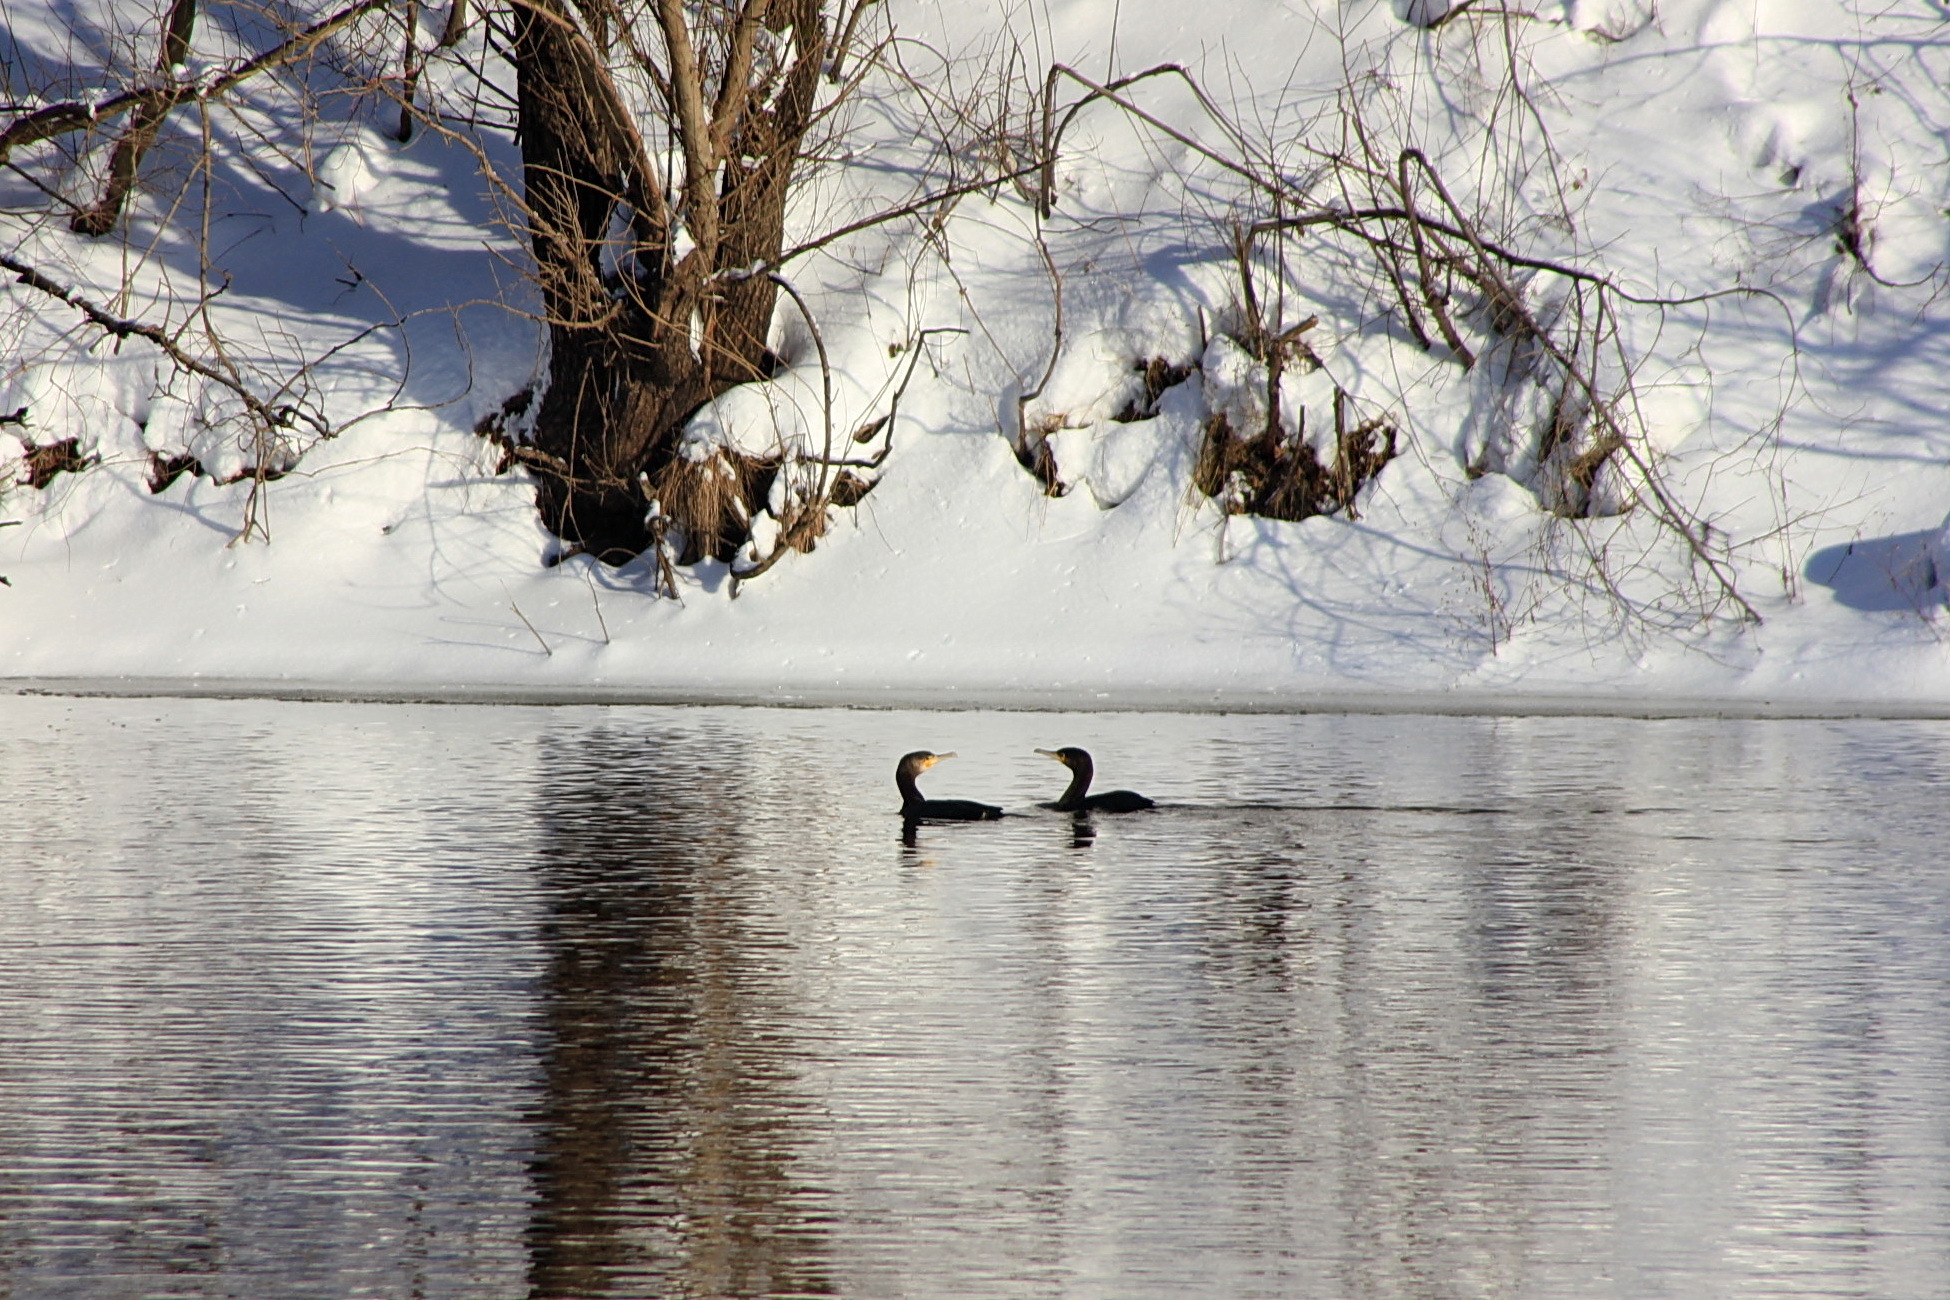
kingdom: Animalia
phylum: Chordata
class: Aves
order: Suliformes
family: Phalacrocoracidae
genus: Phalacrocorax
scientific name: Phalacrocorax carbo
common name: Great cormorant
